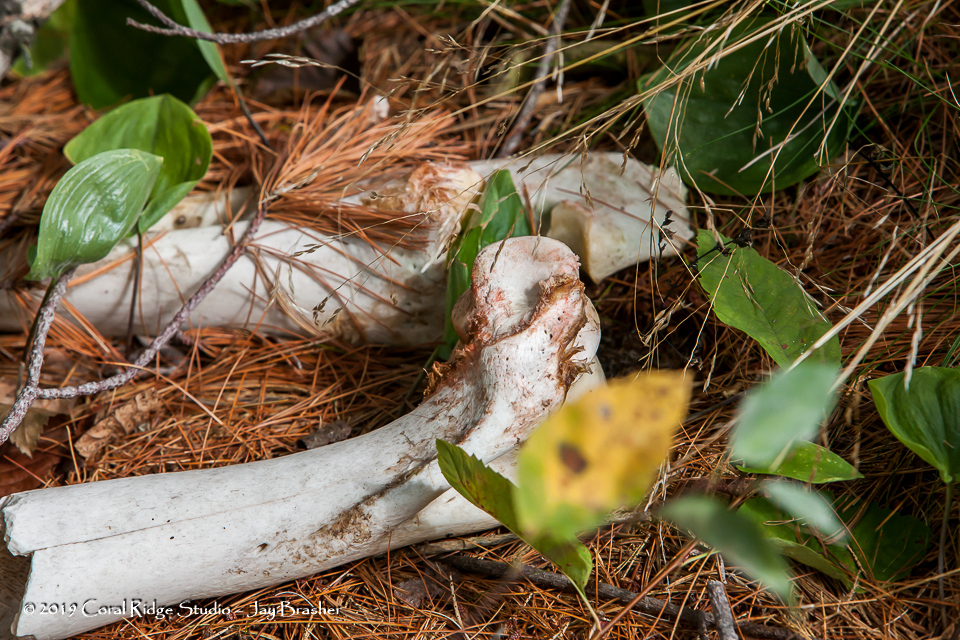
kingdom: Animalia
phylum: Chordata
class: Mammalia
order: Artiodactyla
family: Cervidae
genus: Alces
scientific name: Alces alces
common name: Moose
